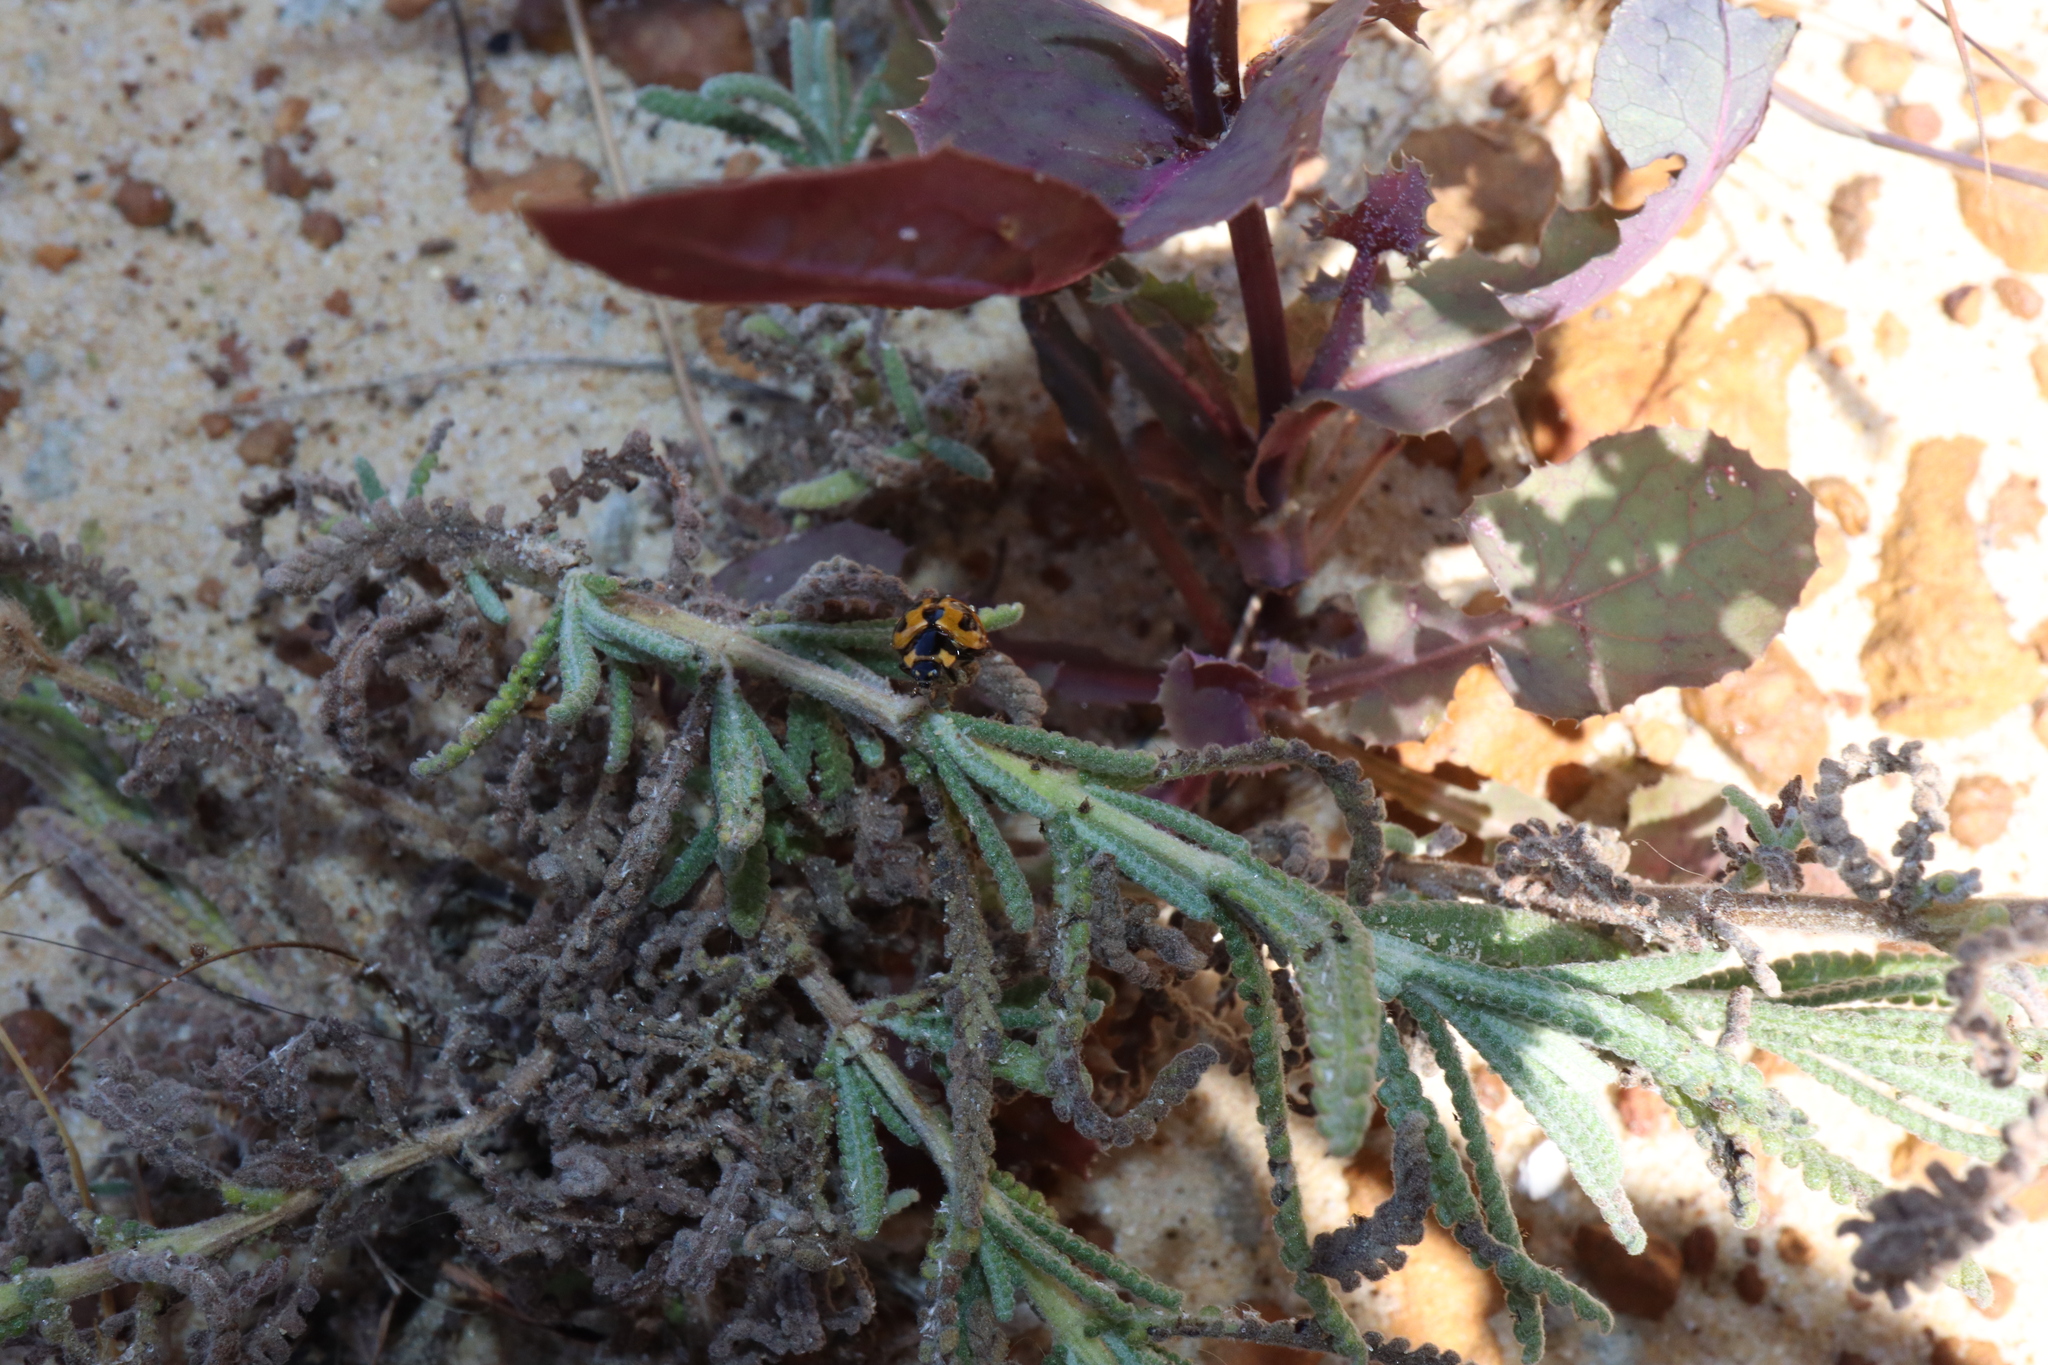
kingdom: Animalia
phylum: Arthropoda
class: Insecta
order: Coleoptera
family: Coccinellidae
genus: Coccinella
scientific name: Coccinella transversalis
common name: Transverse lady beetle
